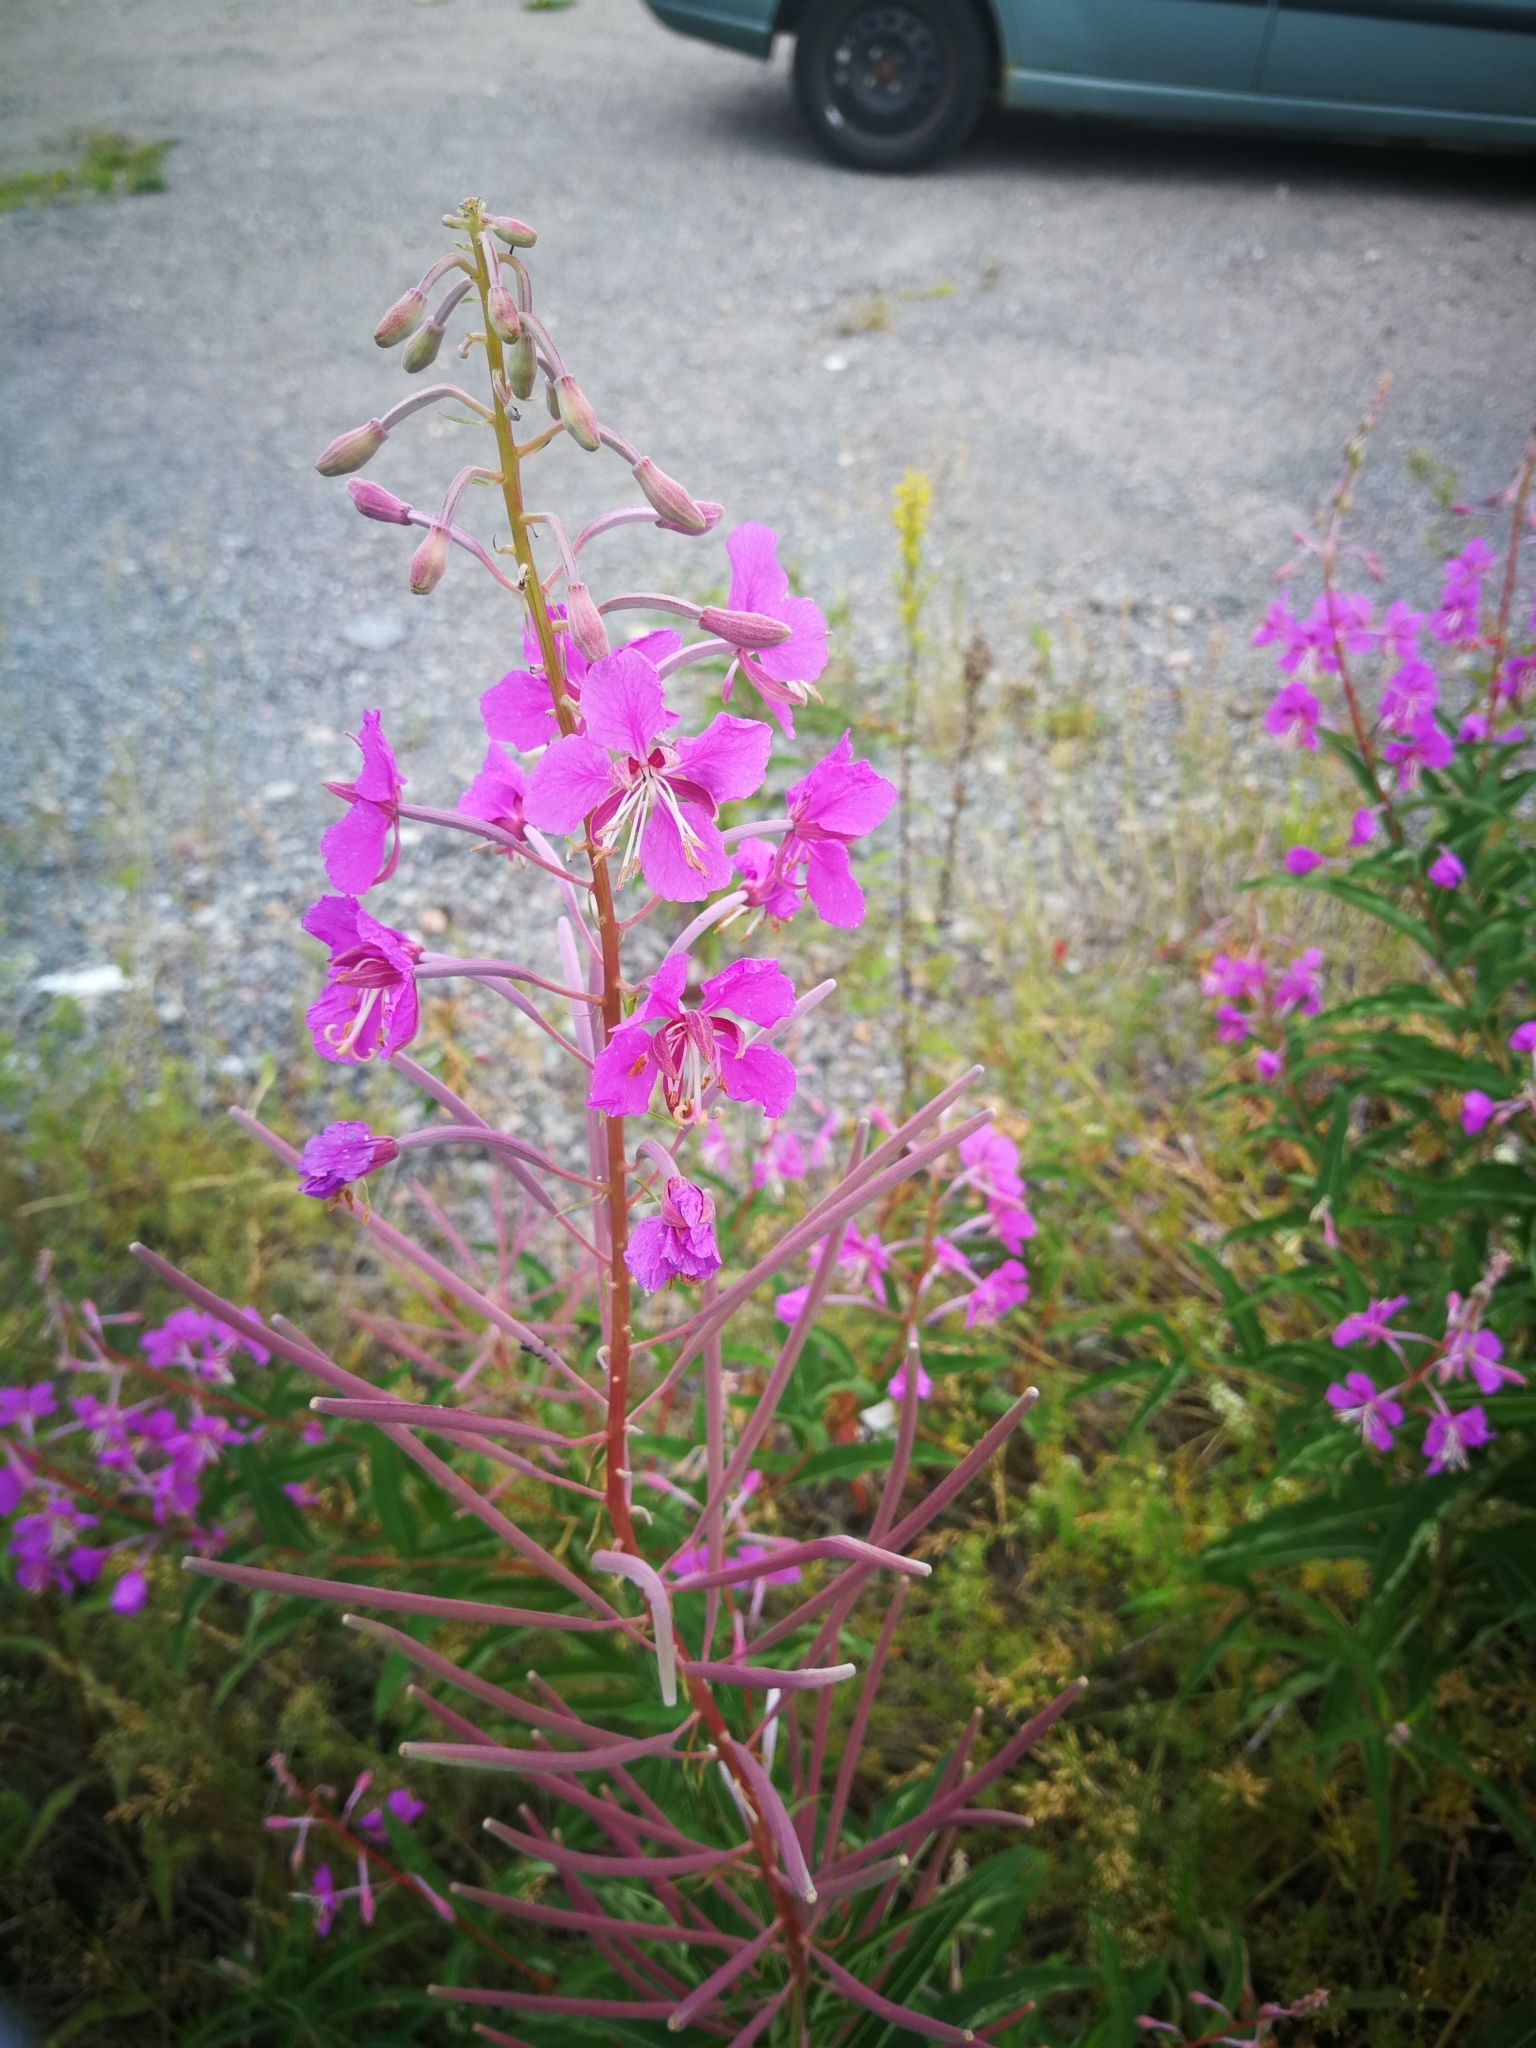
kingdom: Plantae
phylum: Tracheophyta
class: Magnoliopsida
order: Myrtales
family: Onagraceae
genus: Chamaenerion
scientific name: Chamaenerion angustifolium
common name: Fireweed
